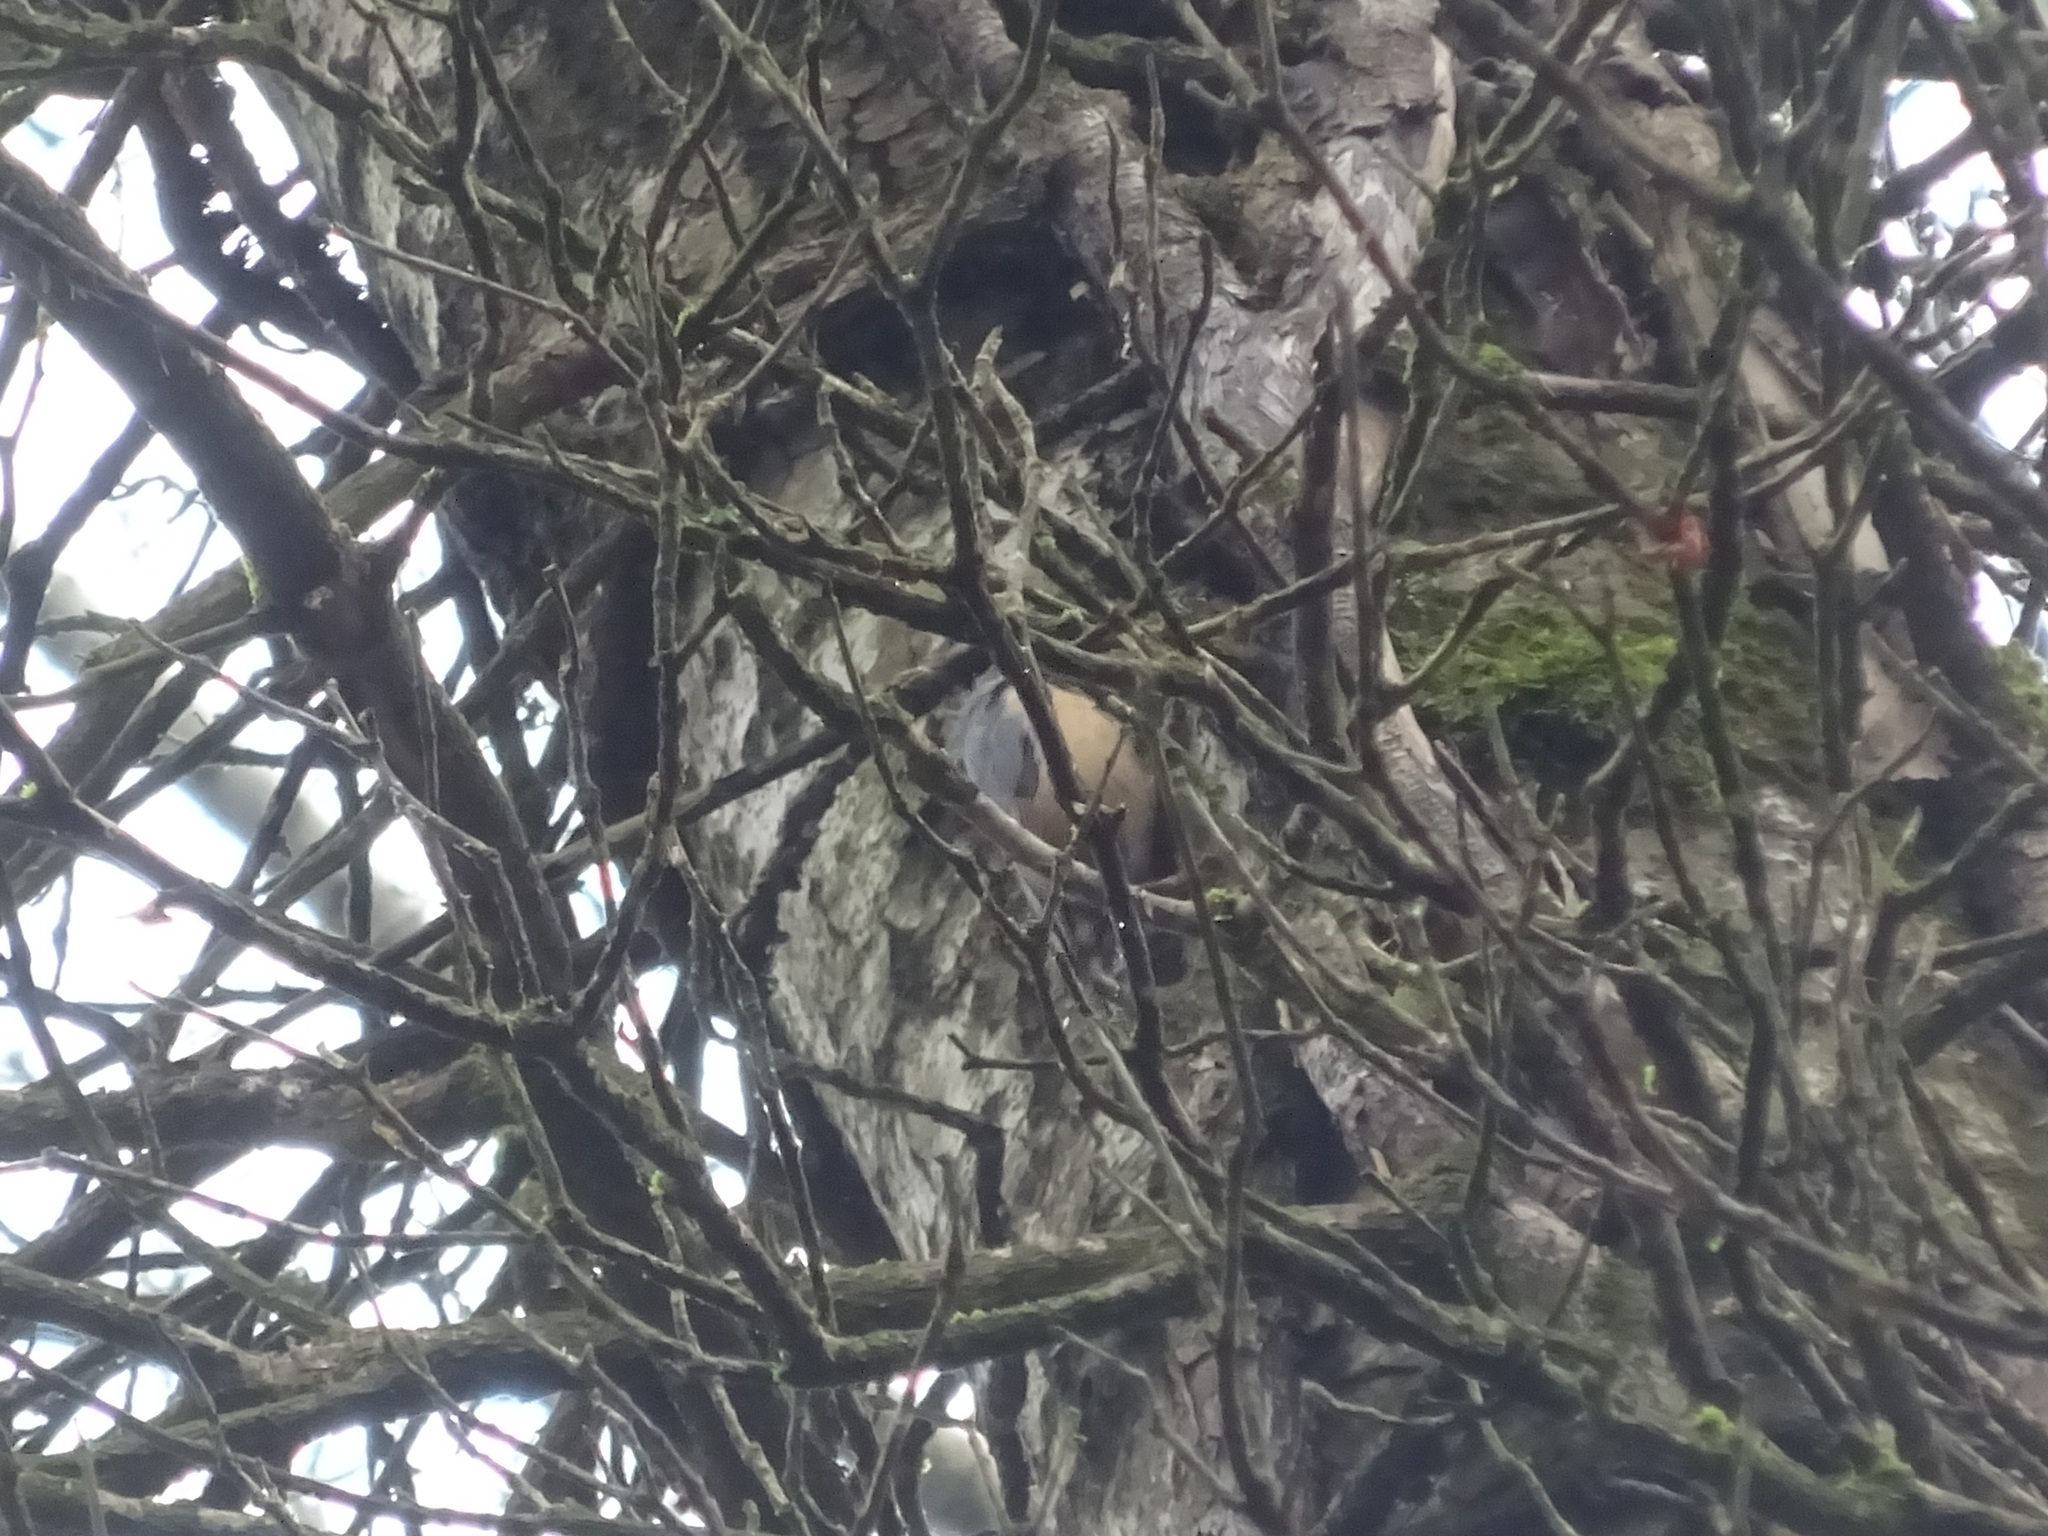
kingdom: Animalia
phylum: Chordata
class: Aves
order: Passeriformes
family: Sittidae
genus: Sitta
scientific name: Sitta europaea
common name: Eurasian nuthatch
